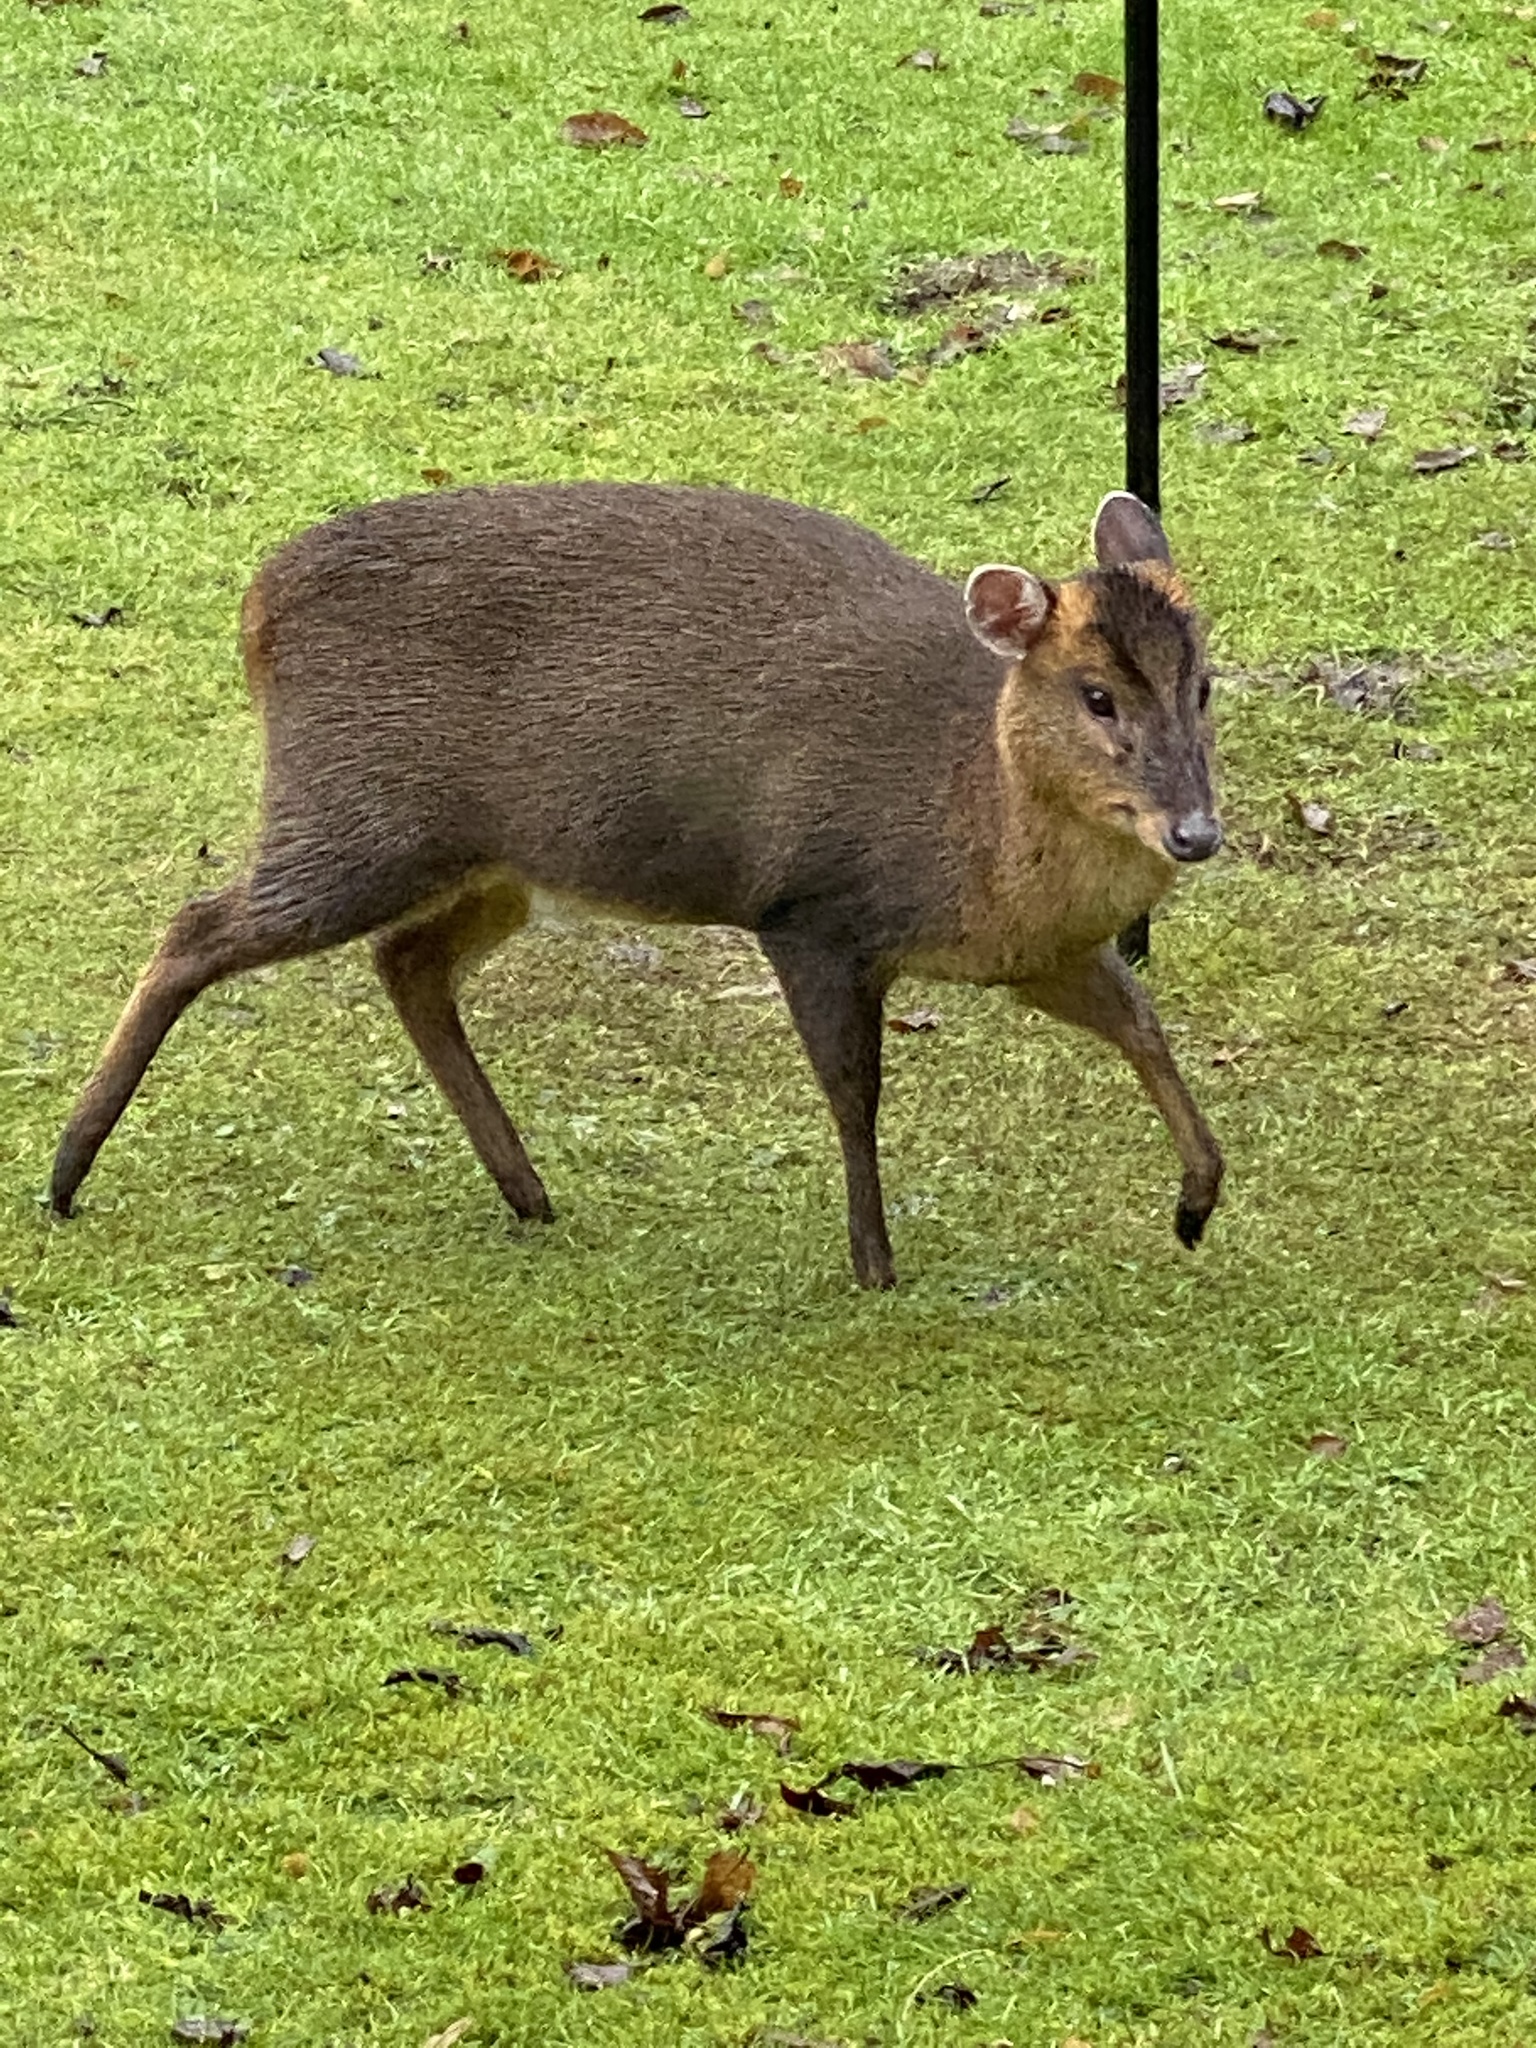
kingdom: Animalia
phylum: Chordata
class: Mammalia
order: Artiodactyla
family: Cervidae
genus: Muntiacus
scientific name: Muntiacus reevesi
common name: Reeves' muntjac
